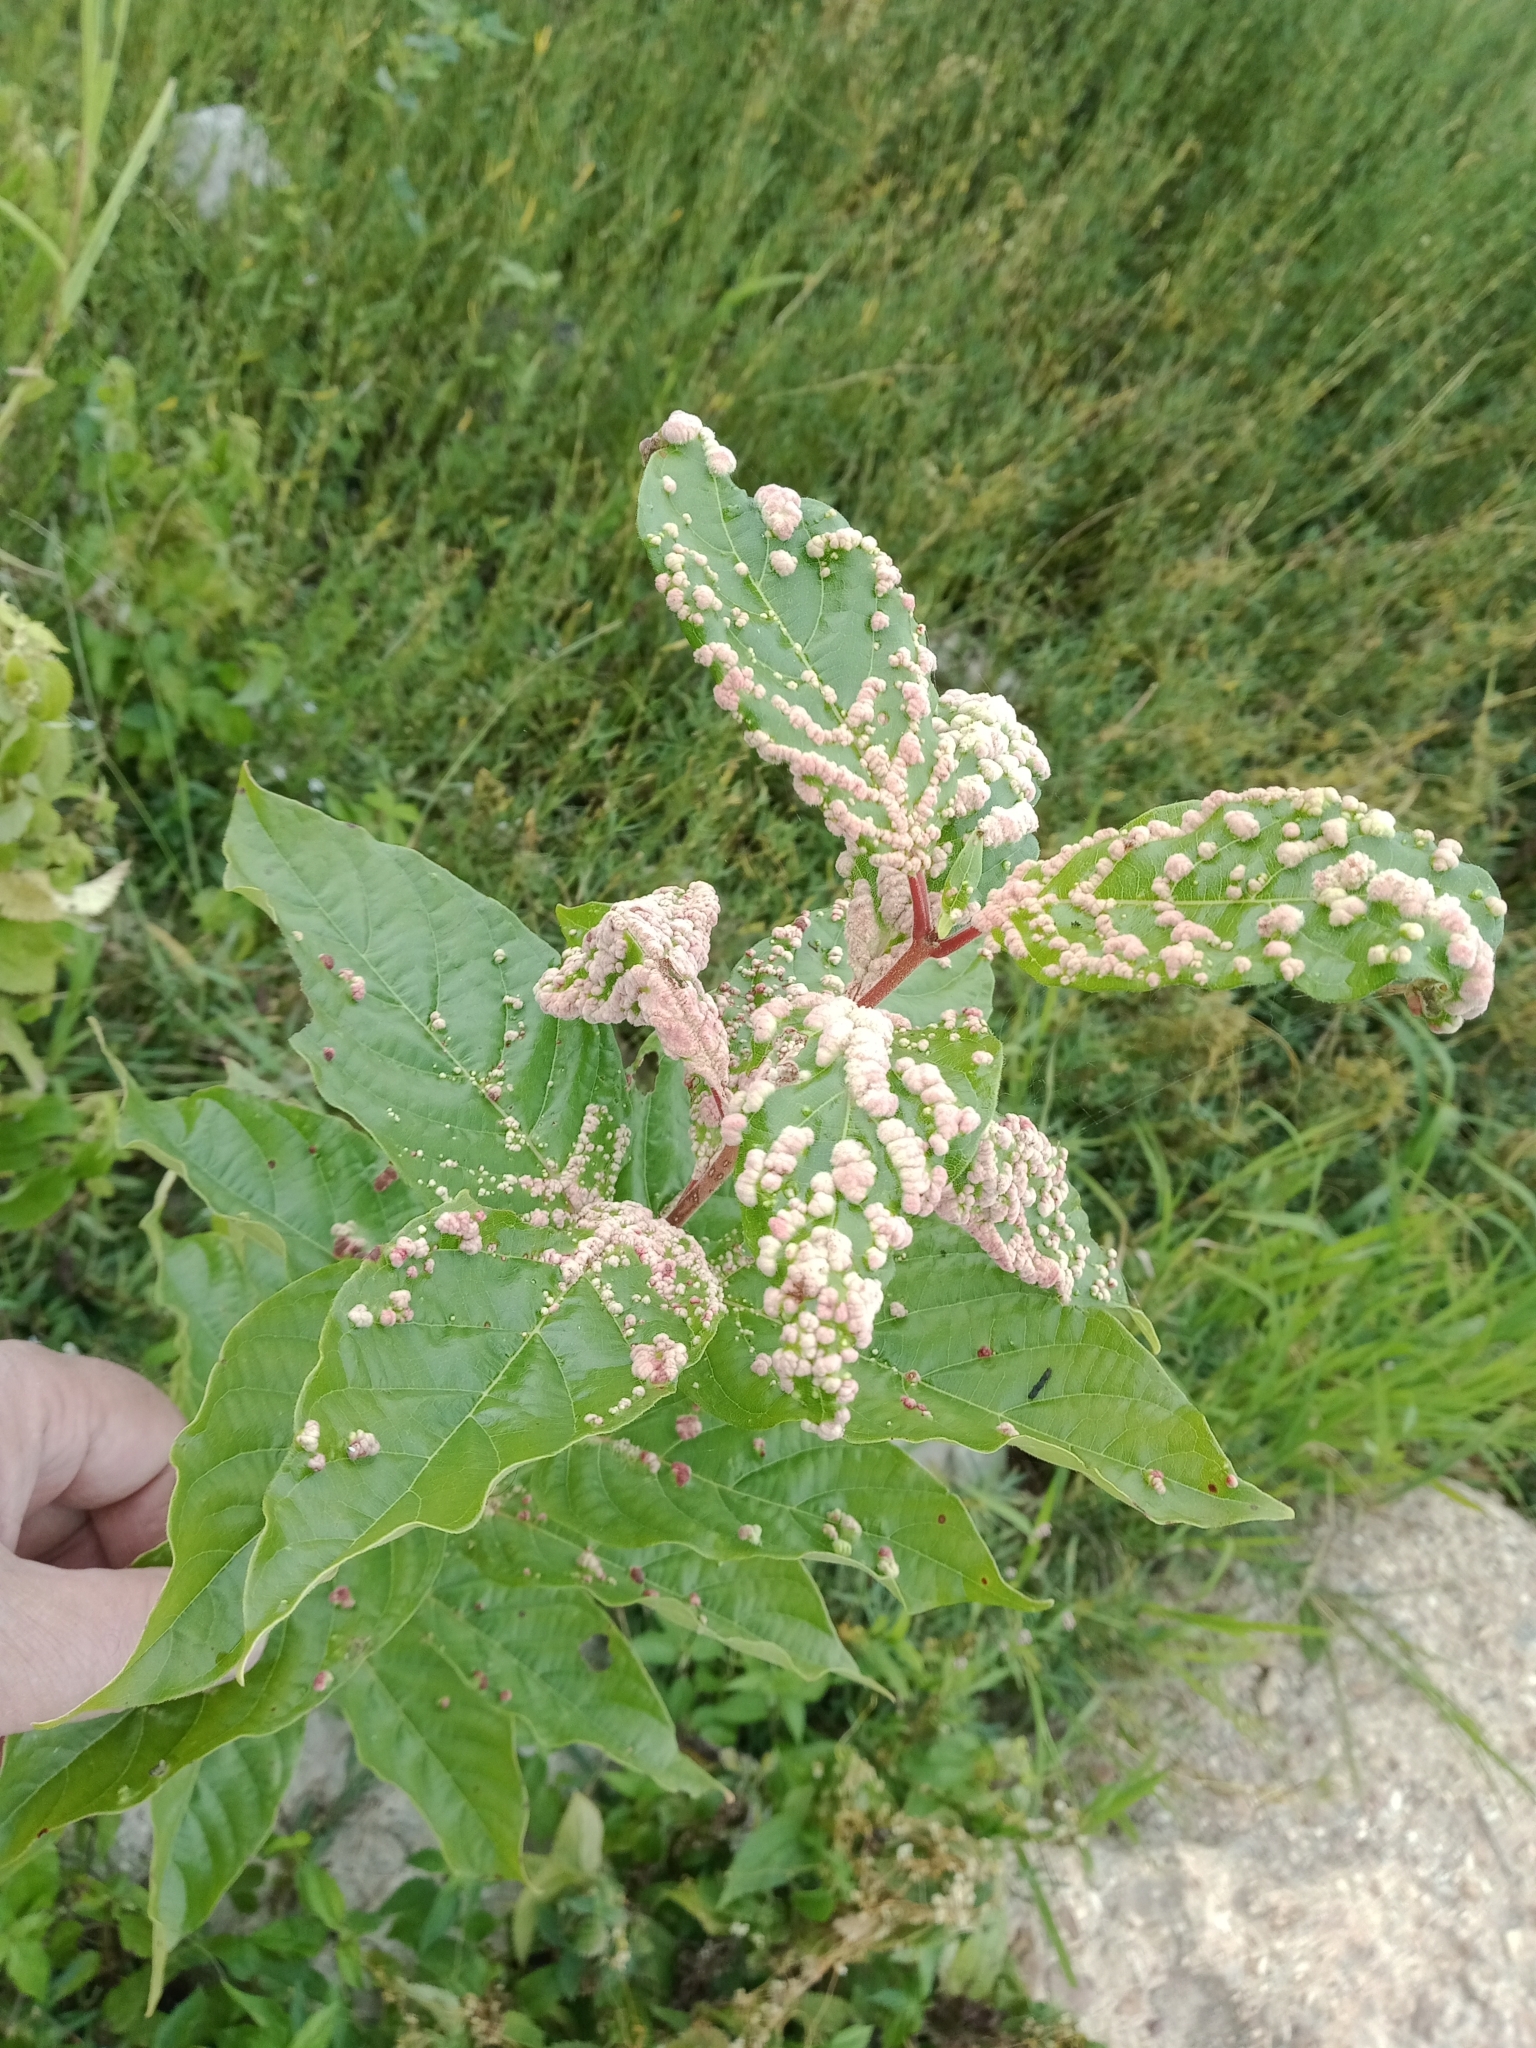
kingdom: Animalia
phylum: Arthropoda
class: Arachnida
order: Trombidiformes
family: Eriophyidae
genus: Aceria
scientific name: Aceria
